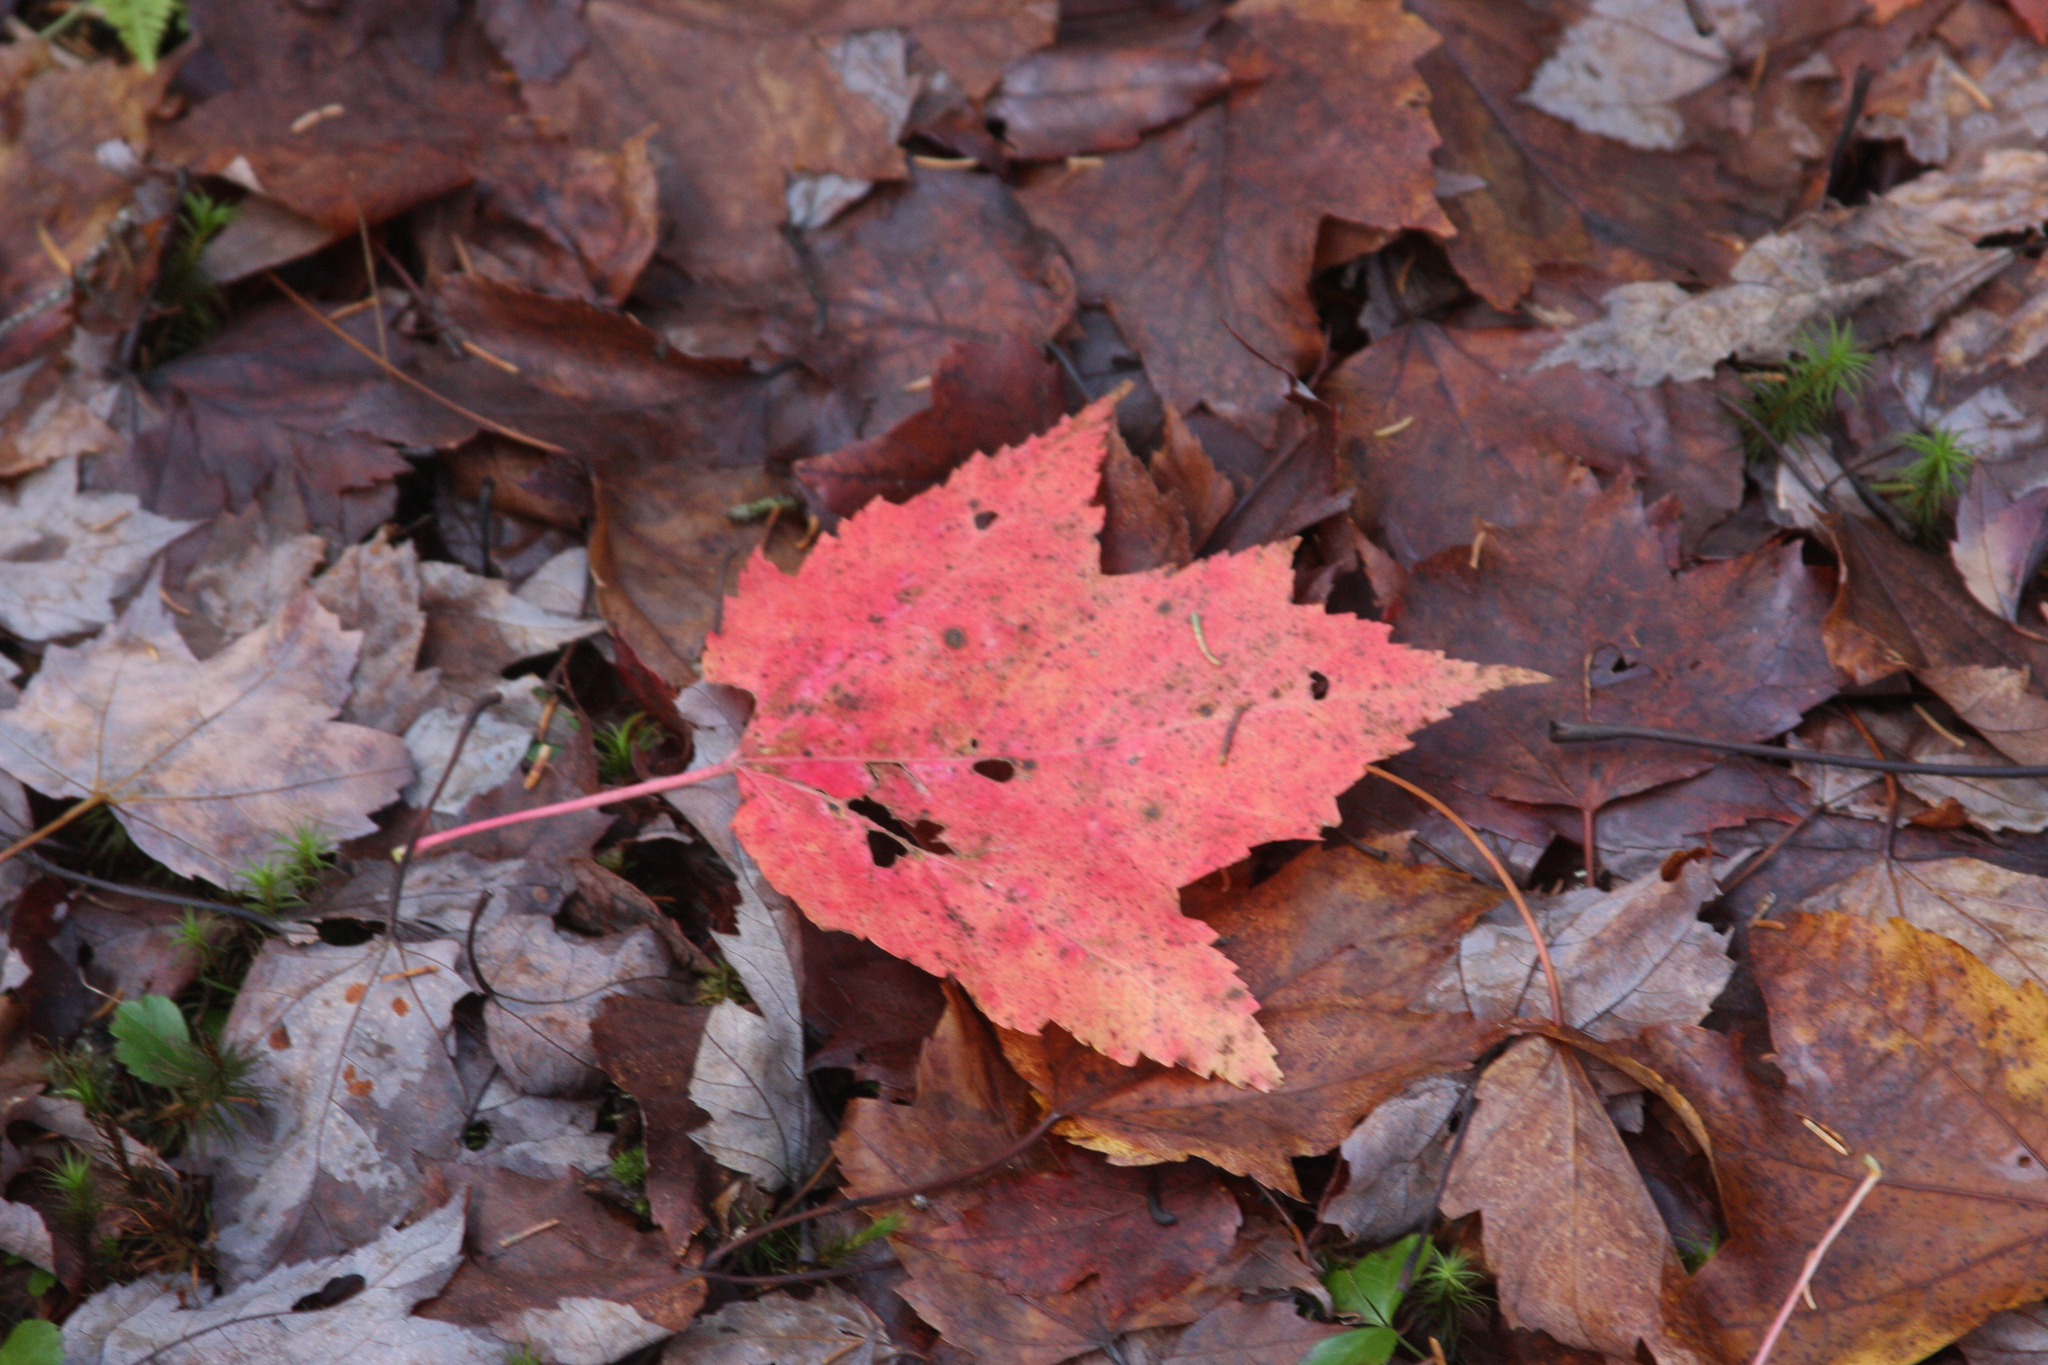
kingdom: Plantae
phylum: Tracheophyta
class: Magnoliopsida
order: Sapindales
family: Sapindaceae
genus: Acer
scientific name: Acer rubrum
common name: Red maple
